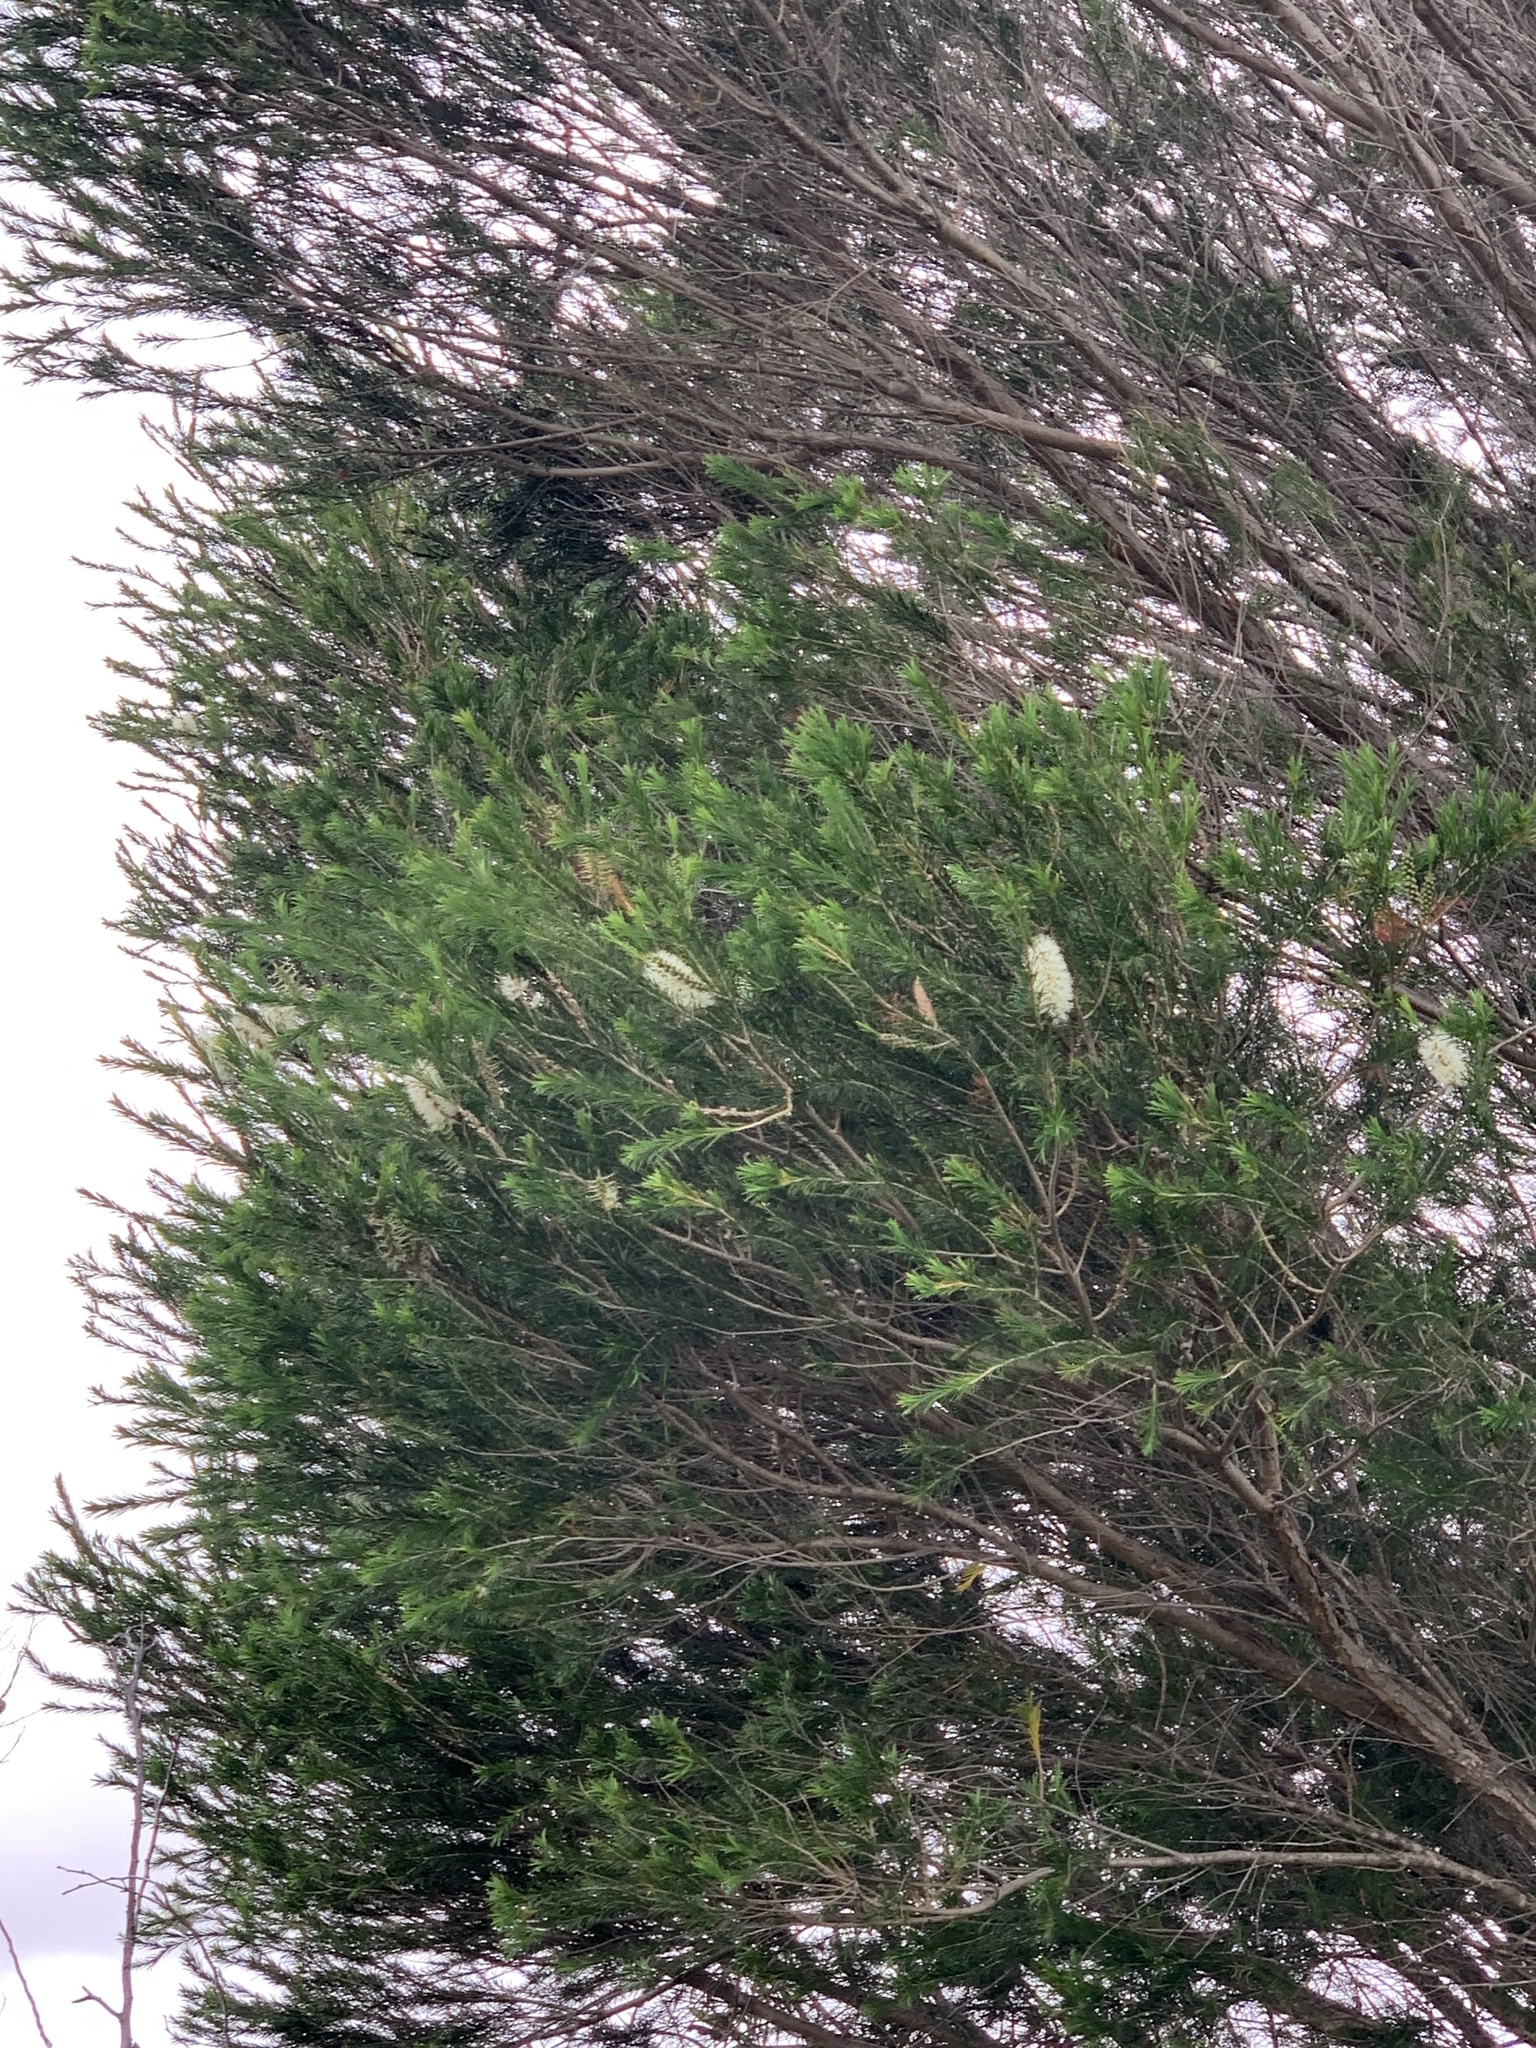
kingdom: Plantae
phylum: Tracheophyta
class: Magnoliopsida
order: Myrtales
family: Myrtaceae
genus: Melaleuca
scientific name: Melaleuca armillaris
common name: Bracelet honey myrtle
